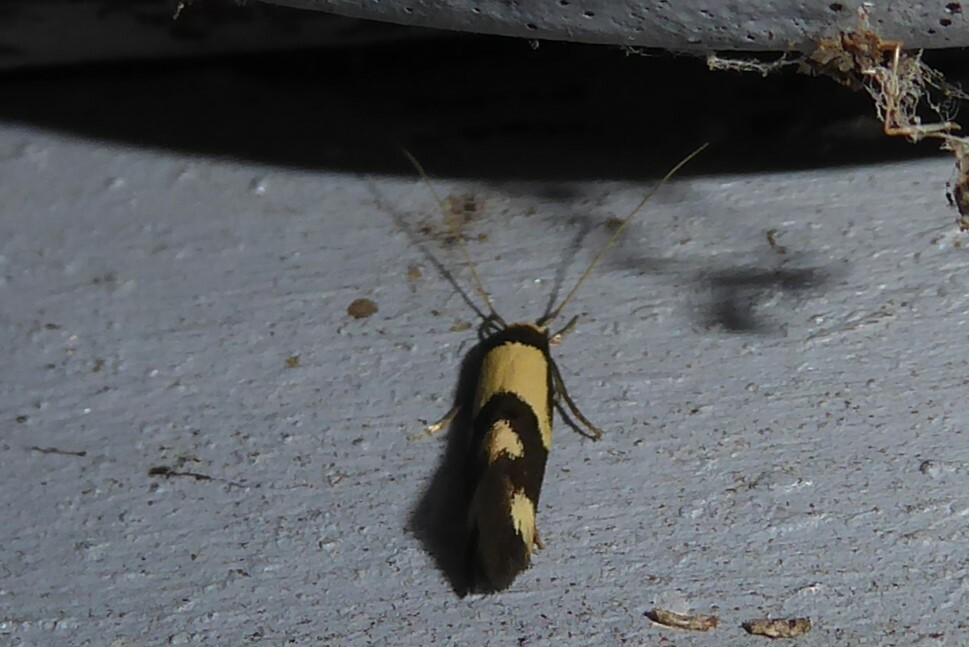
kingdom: Animalia
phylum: Arthropoda
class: Insecta
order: Lepidoptera
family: Tineidae
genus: Opogona
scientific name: Opogona comptella
